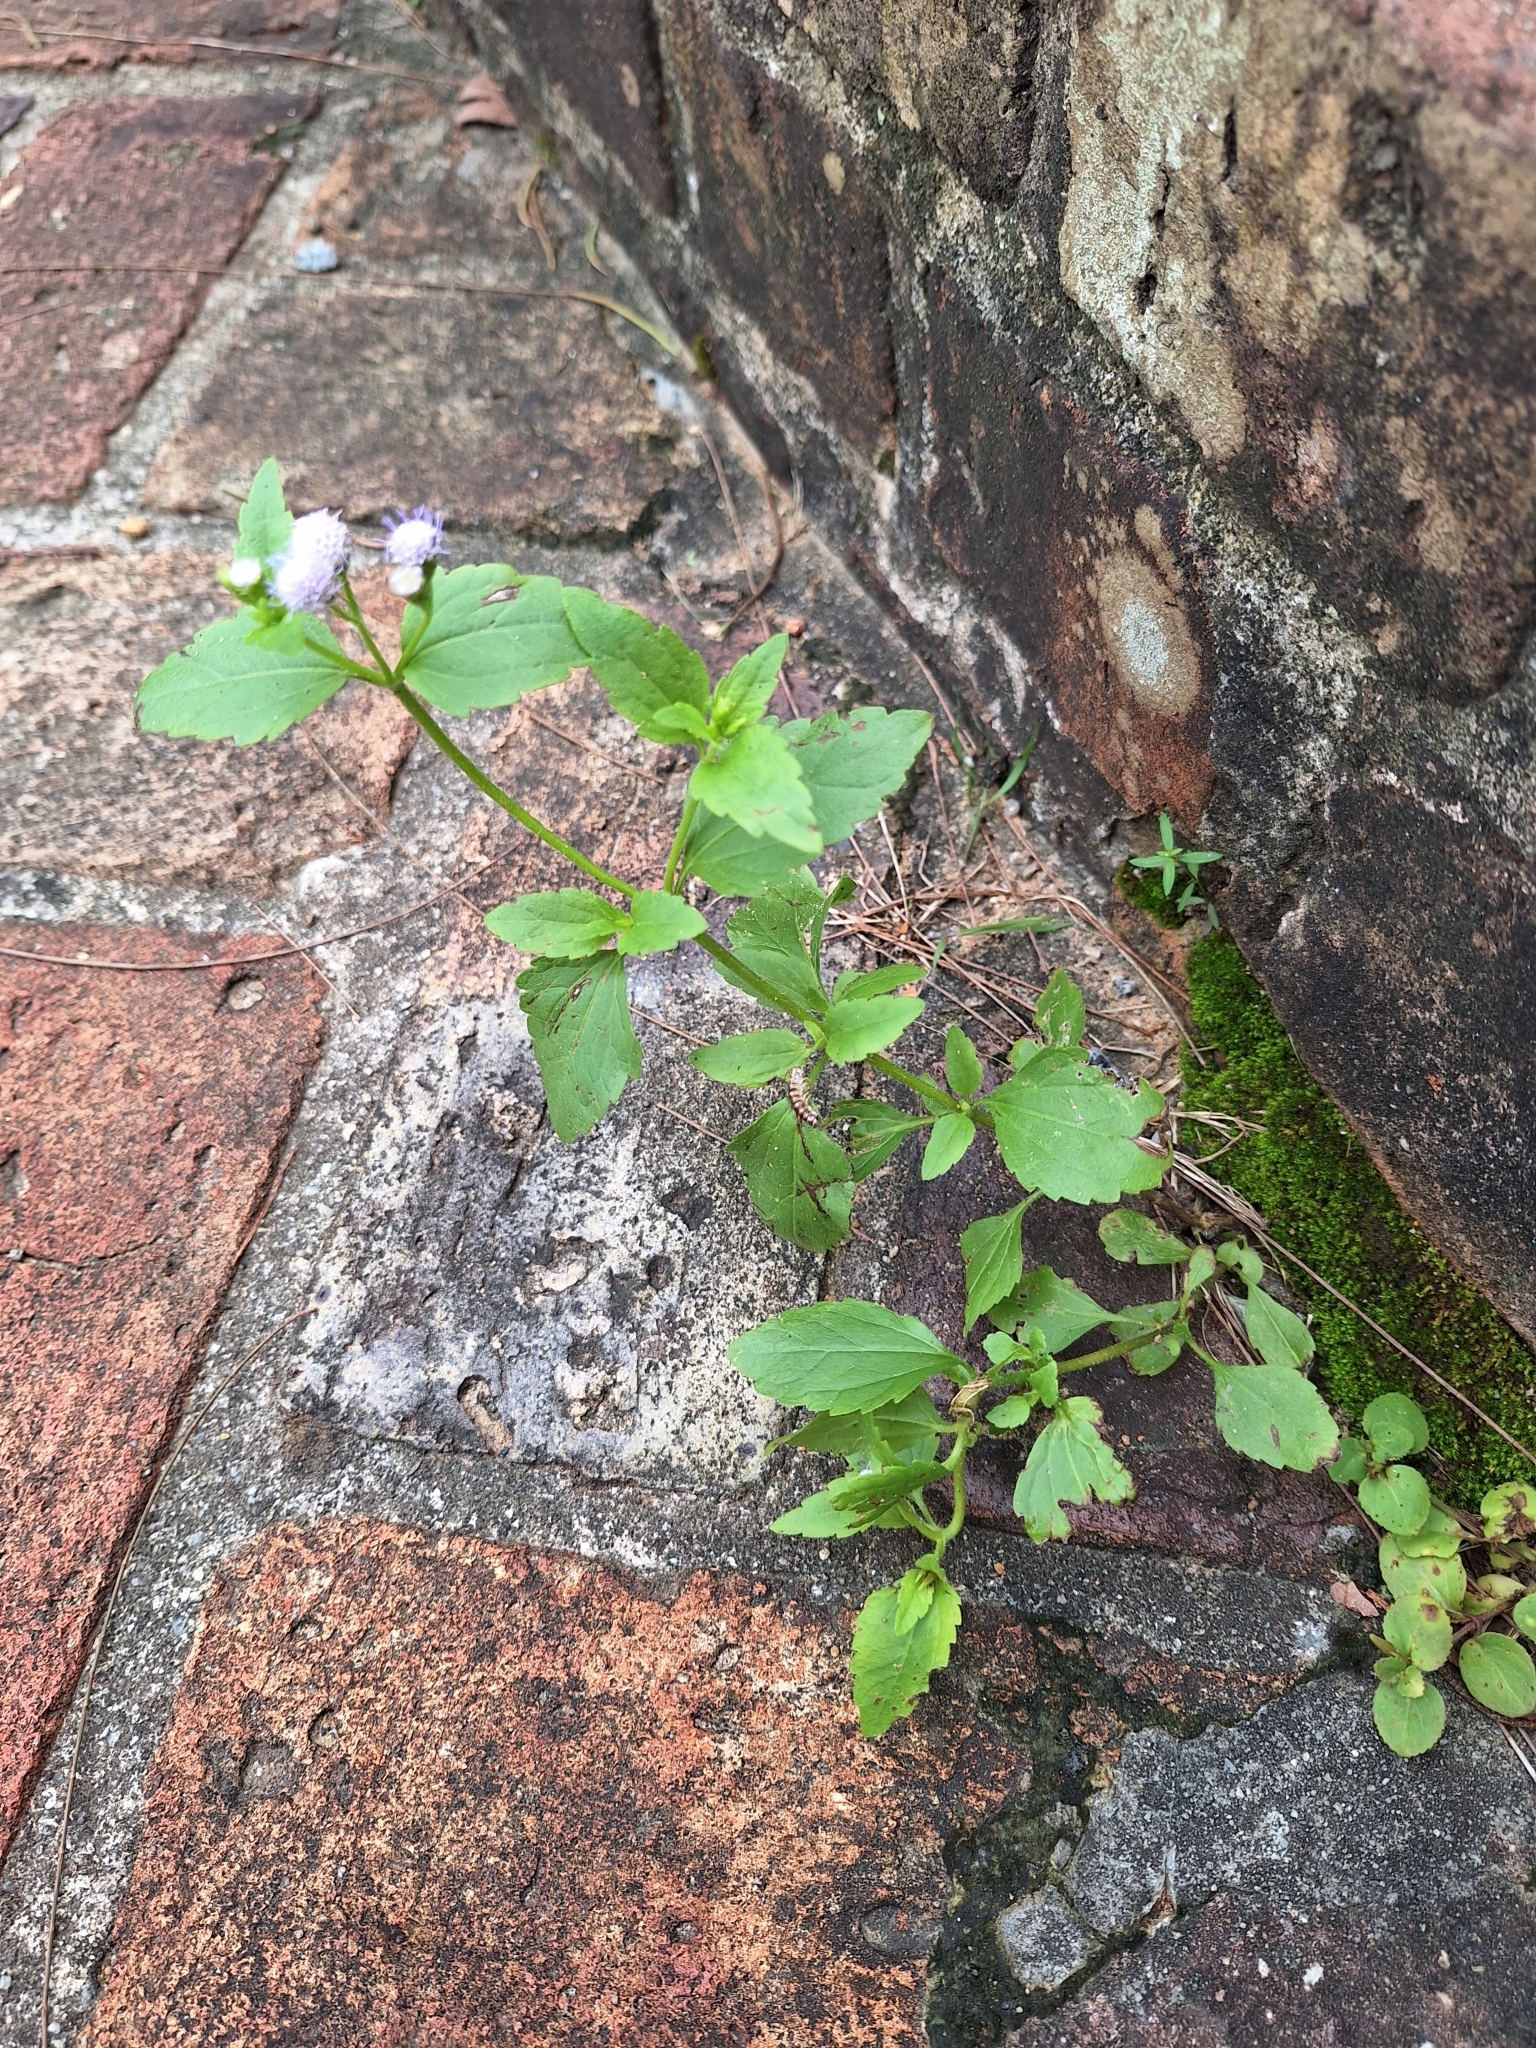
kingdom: Plantae
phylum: Tracheophyta
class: Magnoliopsida
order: Asterales
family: Asteraceae
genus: Praxelis
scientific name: Praxelis clematidea
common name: Praxelis
